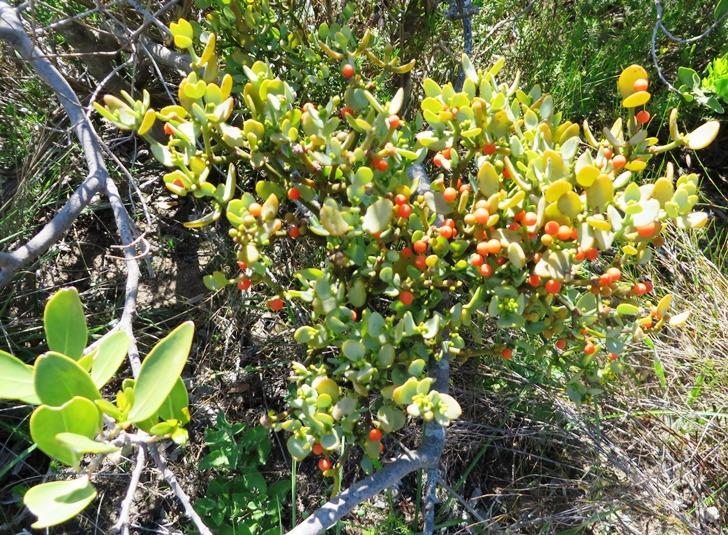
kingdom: Plantae
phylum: Tracheophyta
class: Magnoliopsida
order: Santalales
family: Viscaceae
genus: Viscum
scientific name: Viscum pauciflorum
